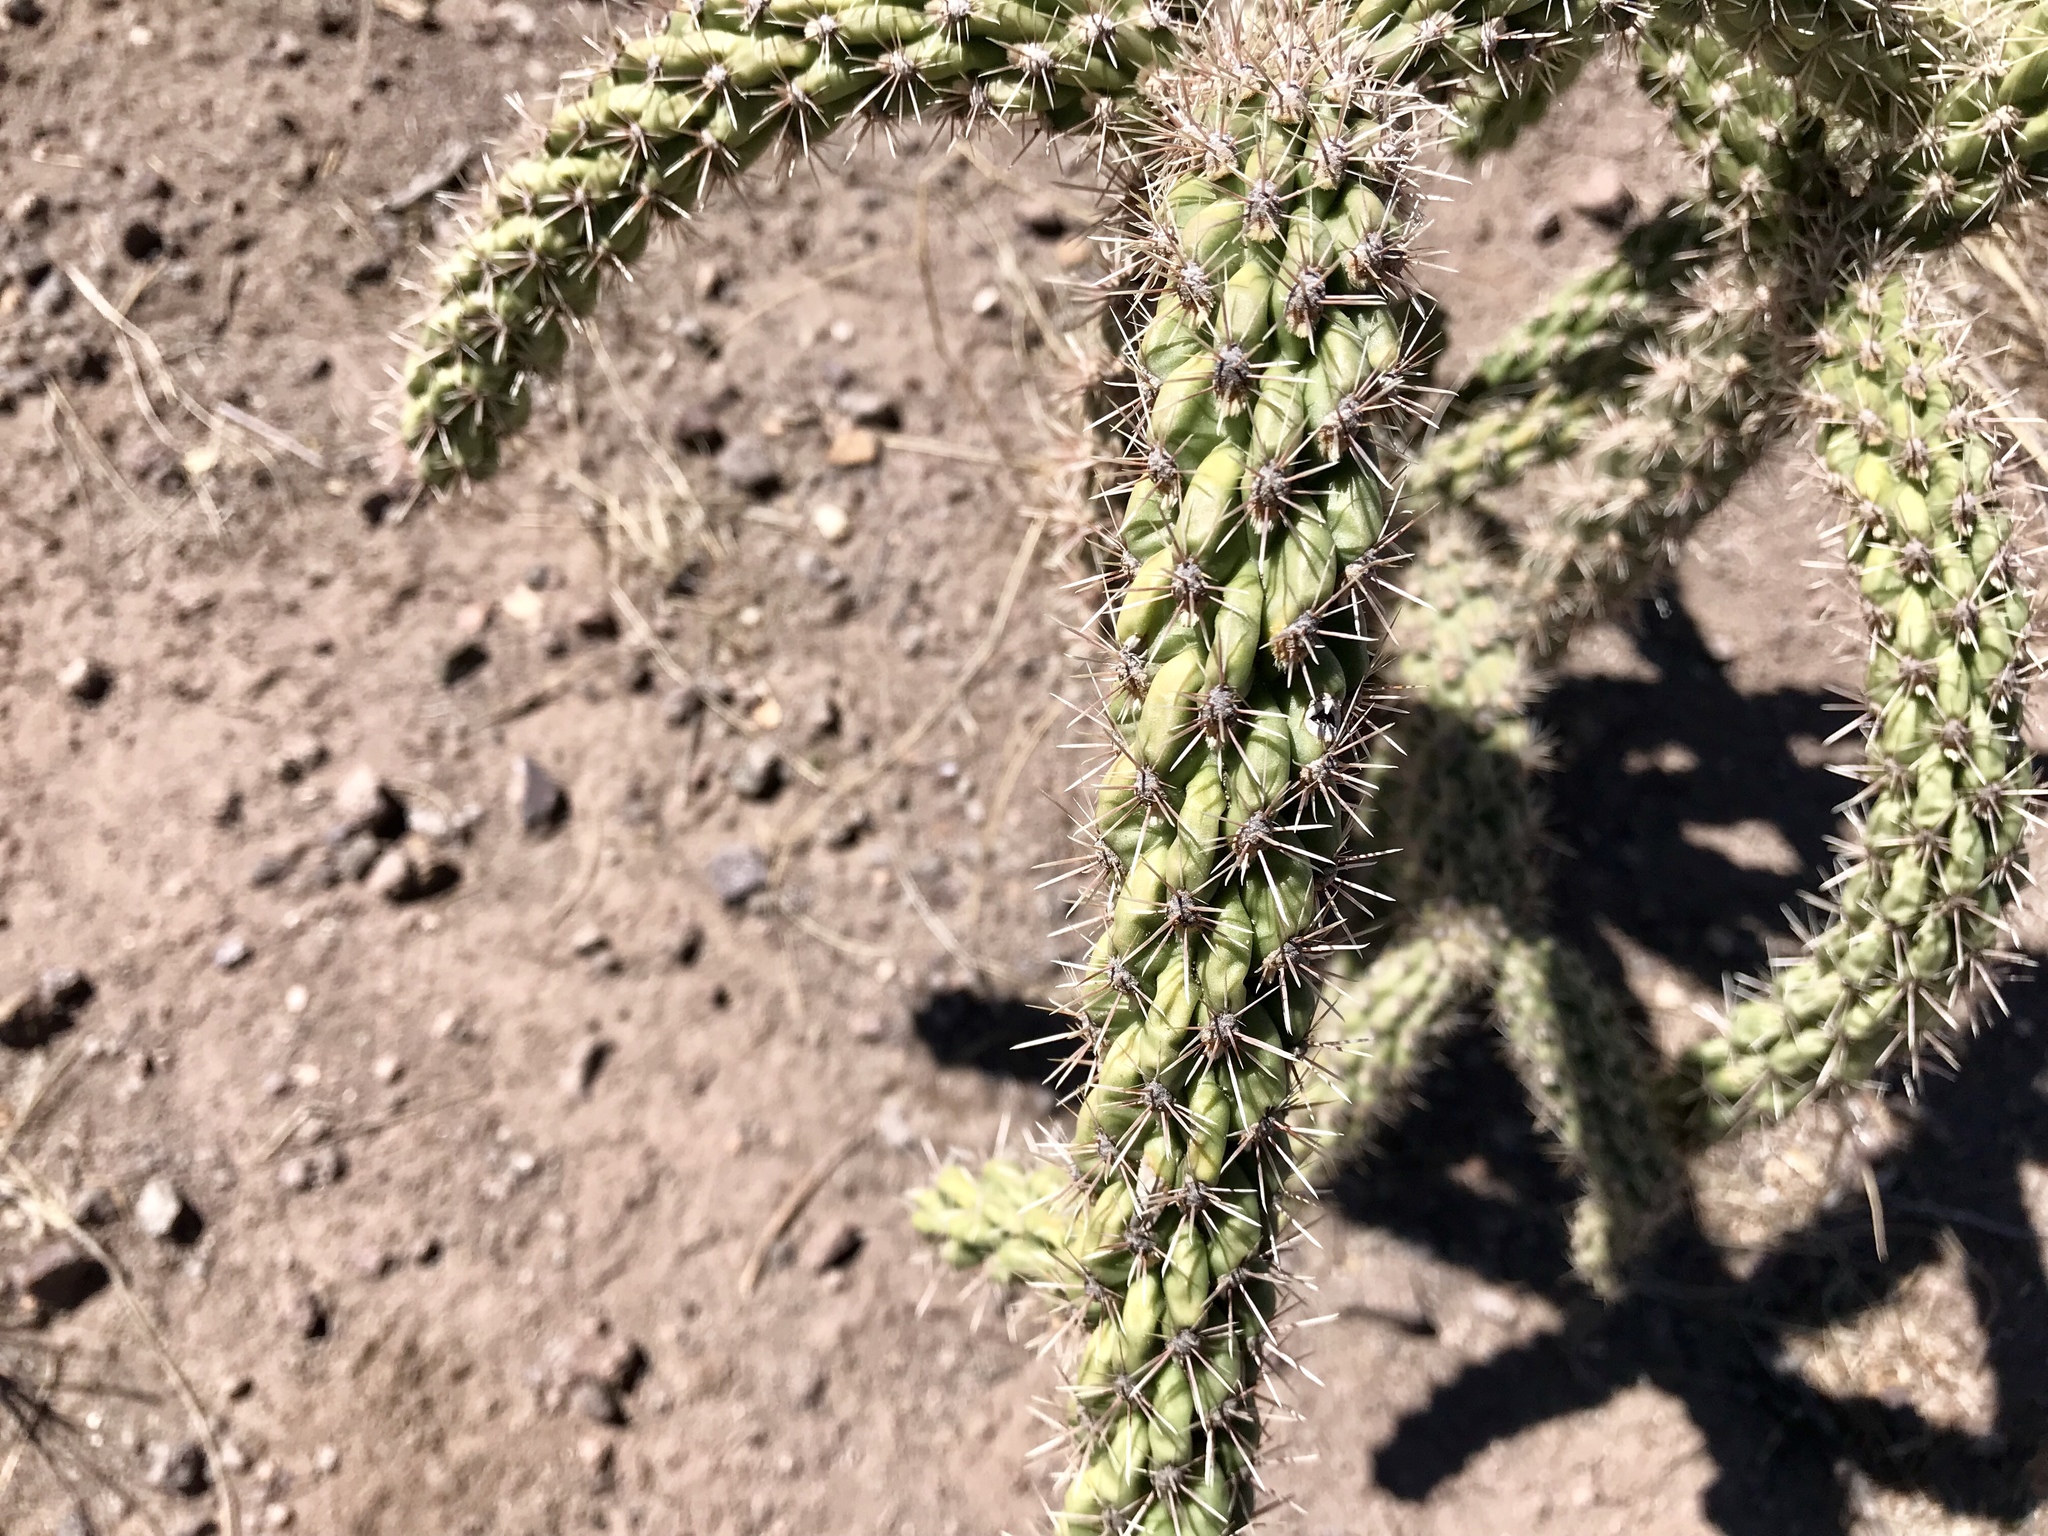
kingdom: Plantae
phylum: Tracheophyta
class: Magnoliopsida
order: Caryophyllales
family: Cactaceae
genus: Cylindropuntia
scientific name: Cylindropuntia imbricata
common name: Candelabrum cactus
